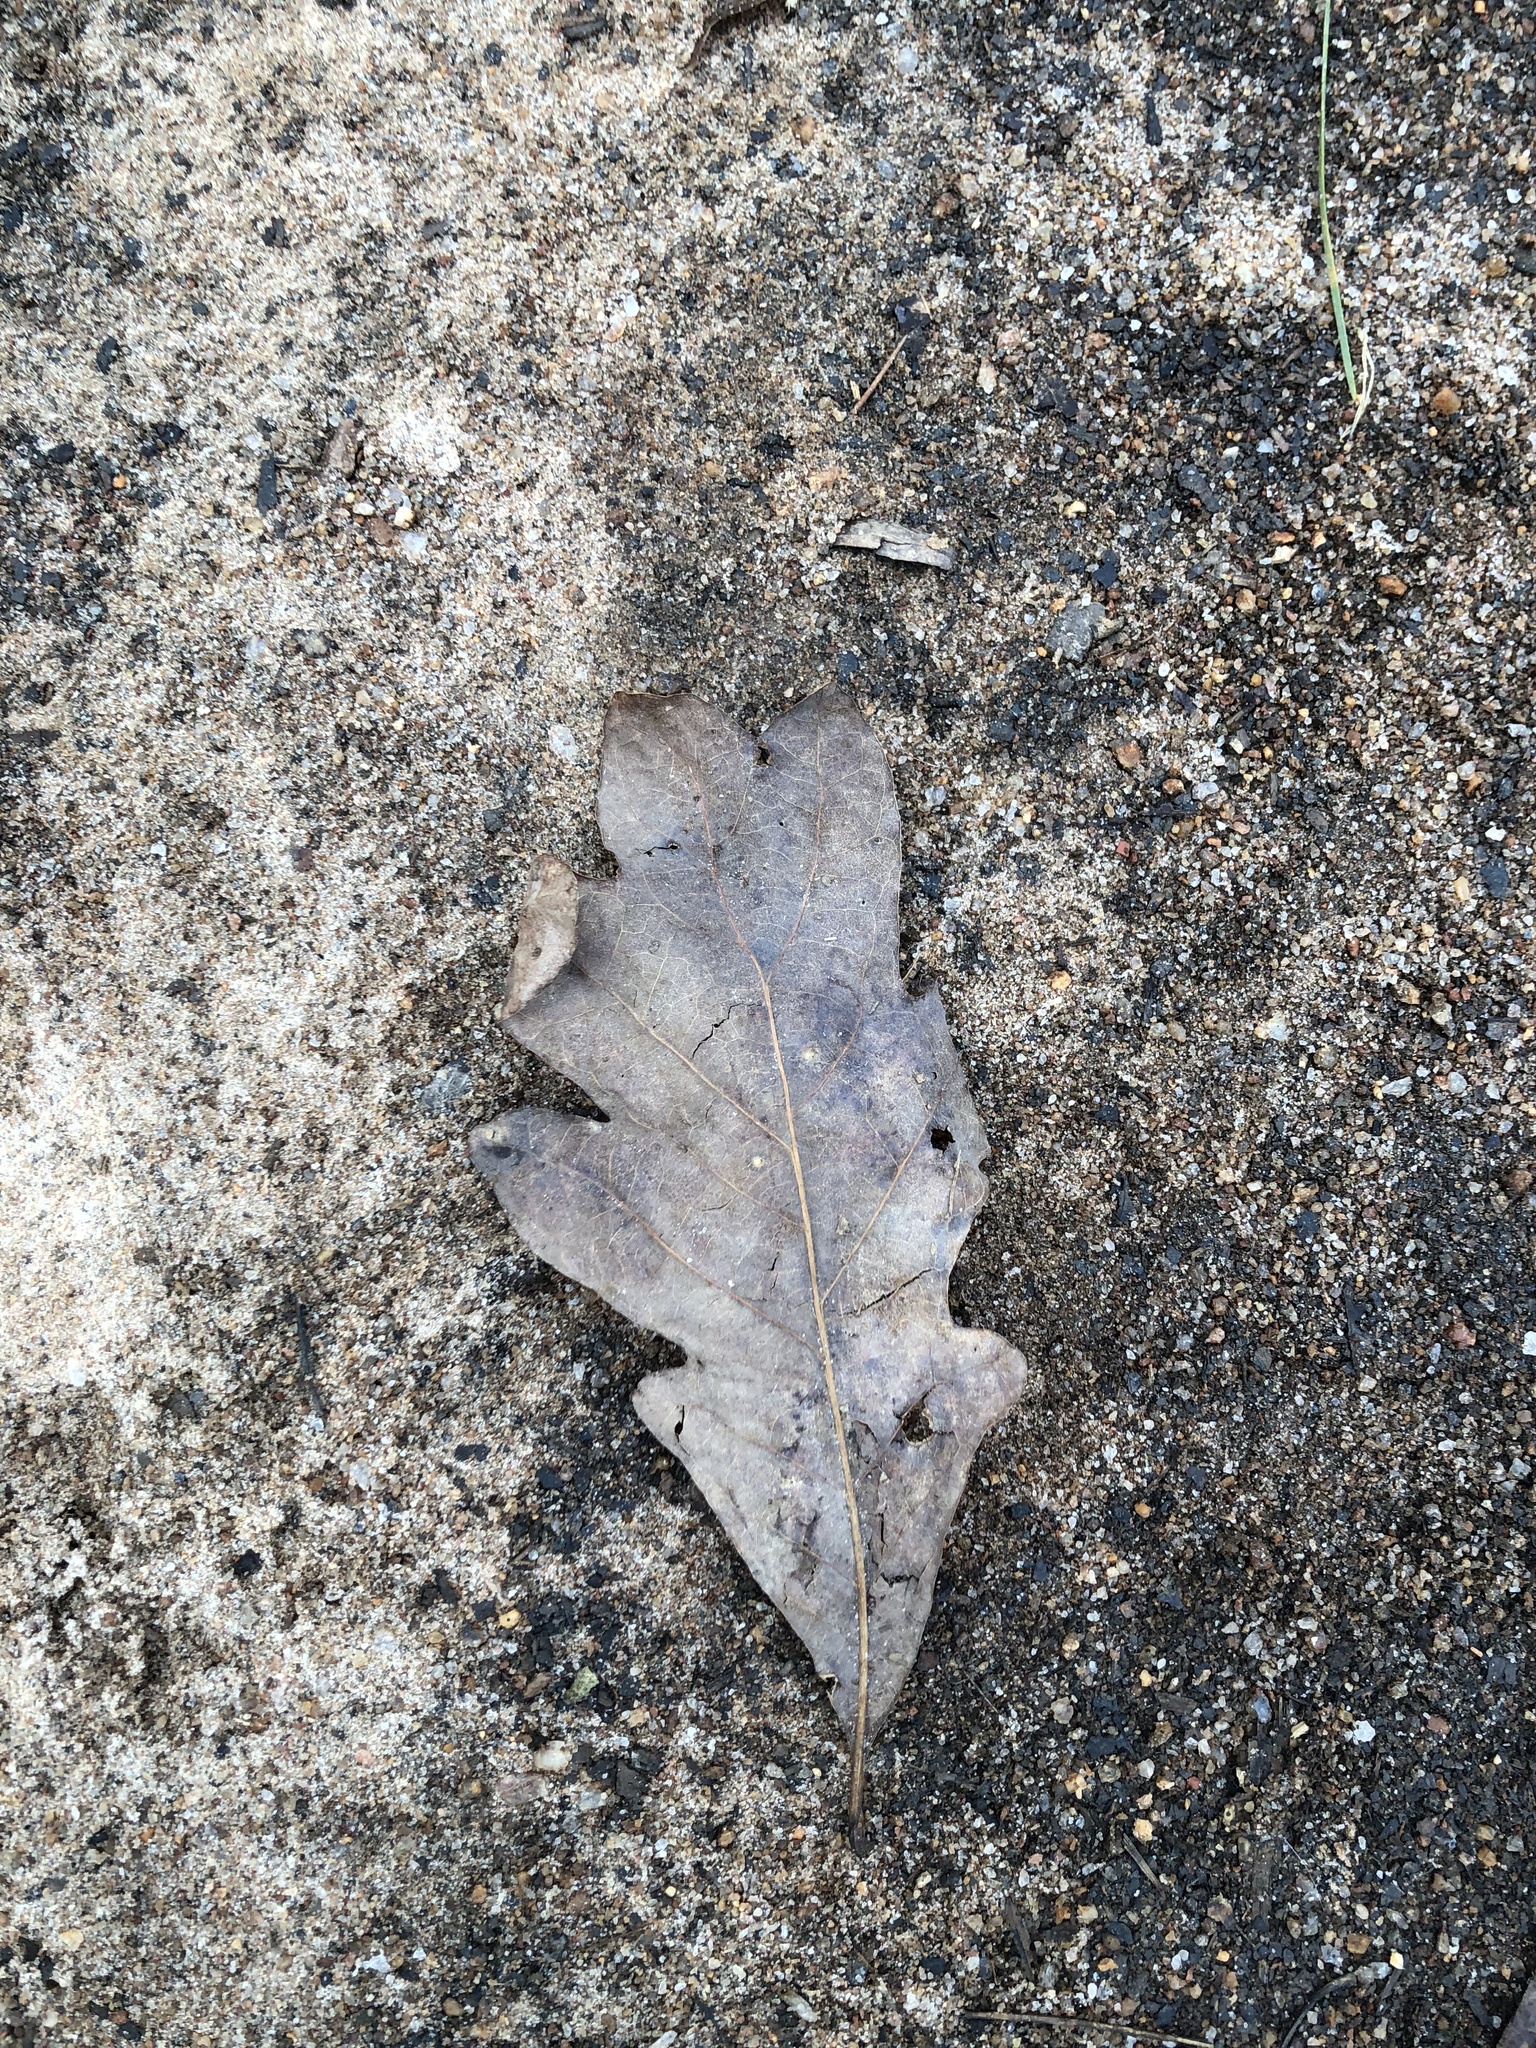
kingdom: Plantae
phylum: Tracheophyta
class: Magnoliopsida
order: Fagales
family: Fagaceae
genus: Quercus
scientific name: Quercus alba
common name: White oak
